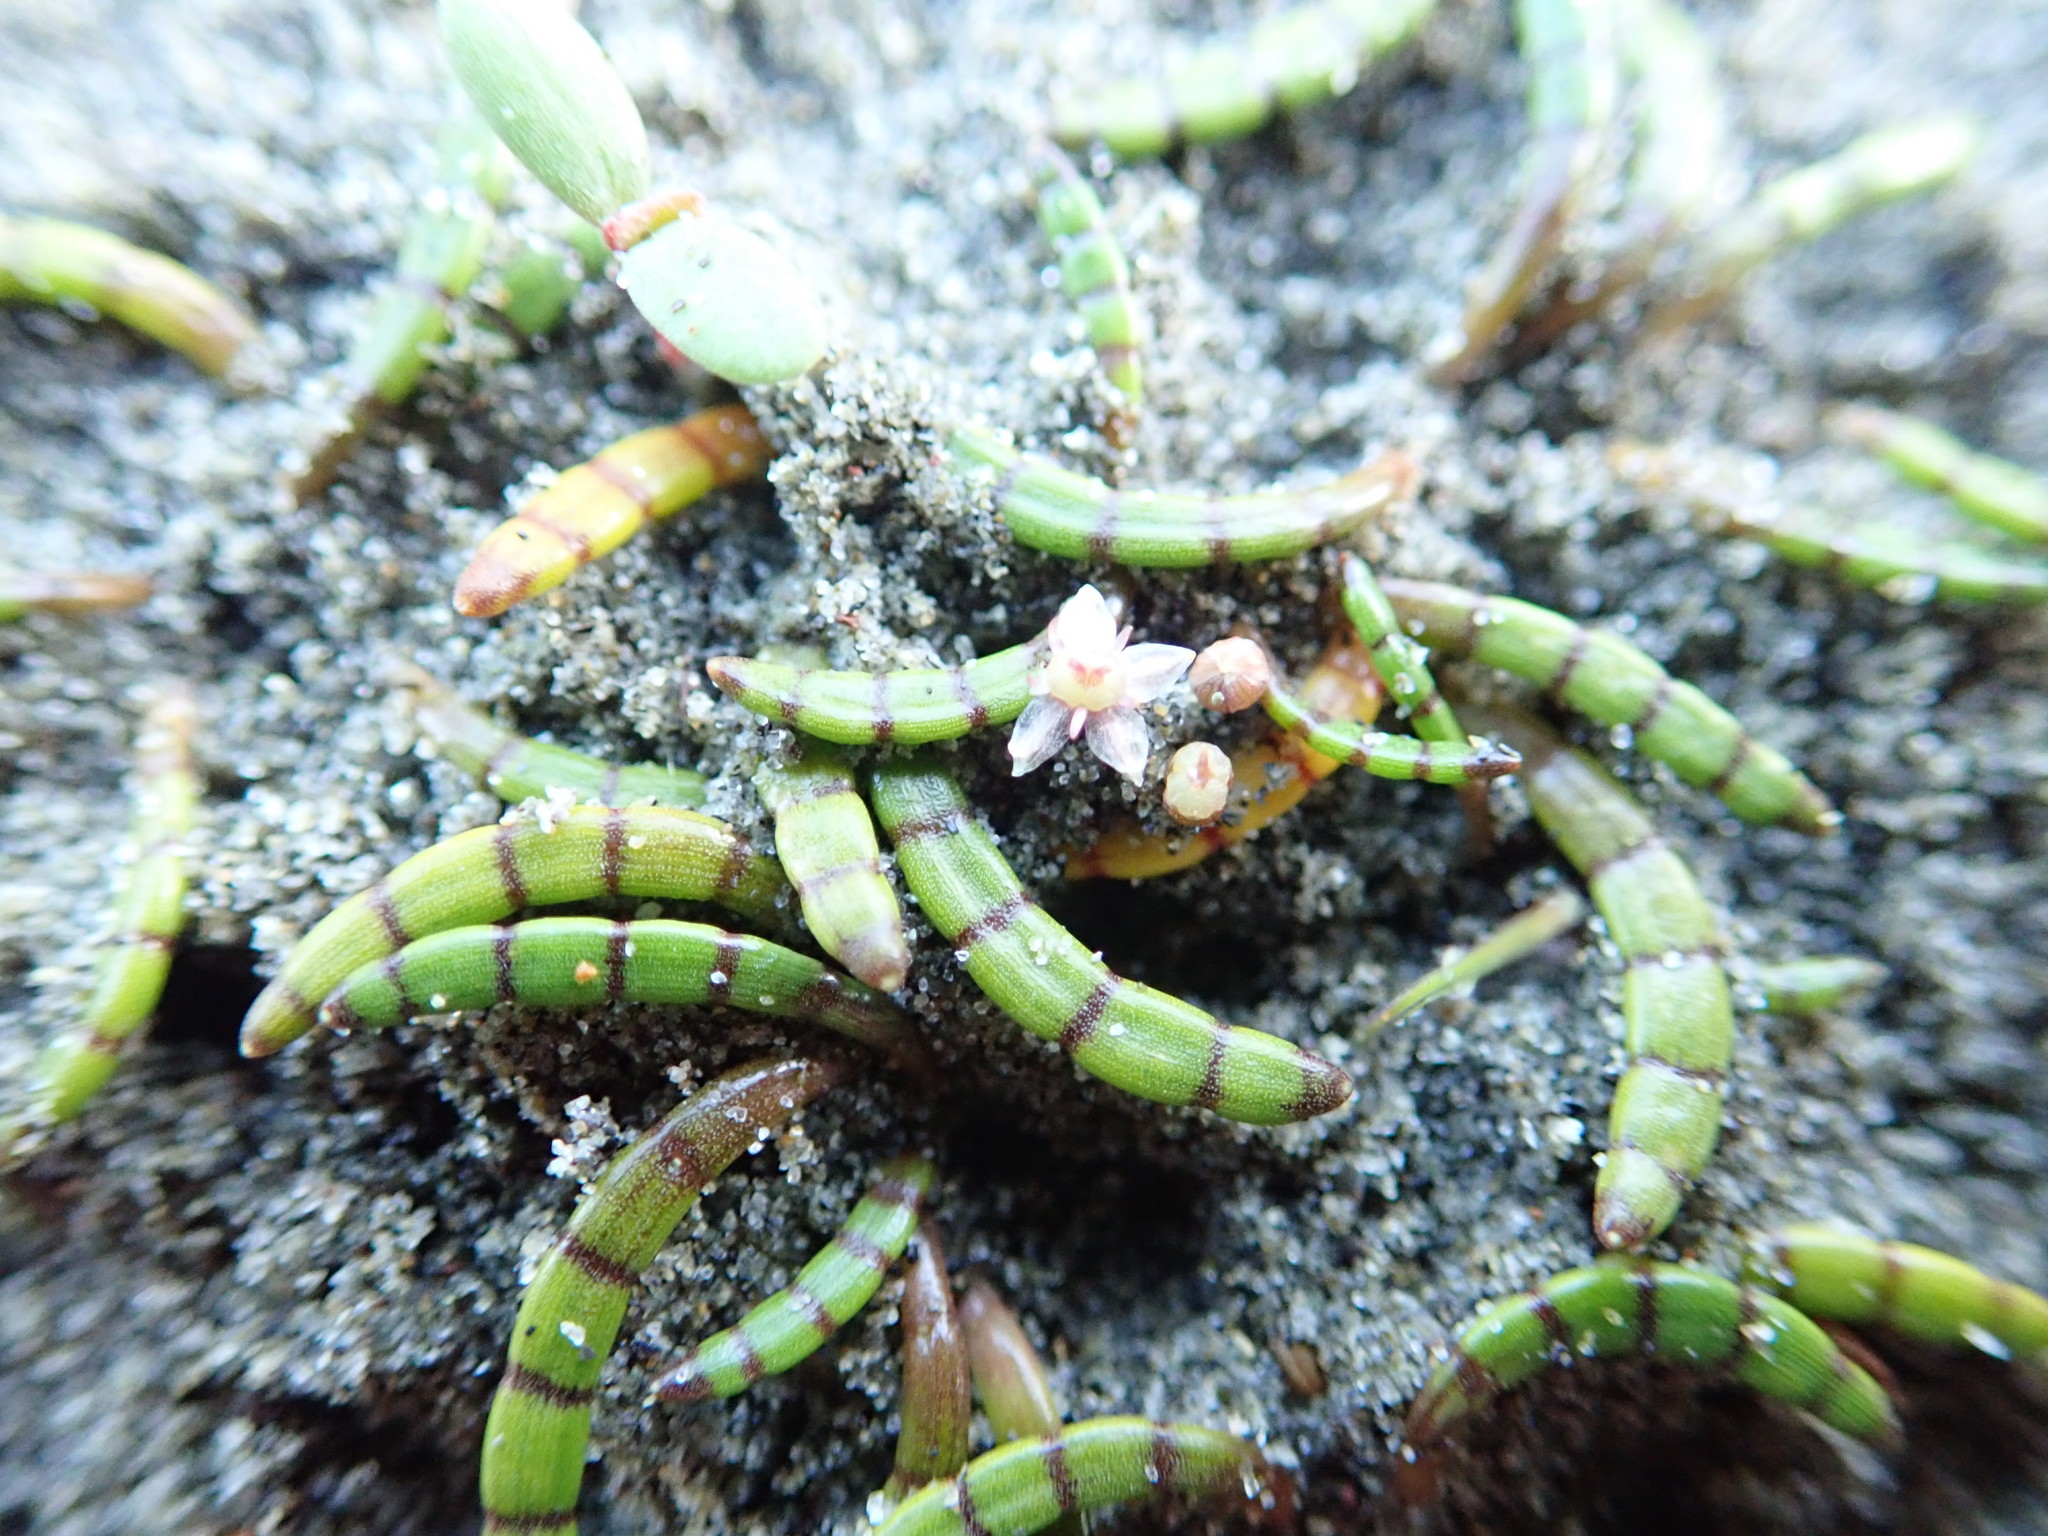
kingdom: Plantae
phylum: Tracheophyta
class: Magnoliopsida
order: Apiales
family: Apiaceae
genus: Lilaeopsis
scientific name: Lilaeopsis novae-zelandiae
